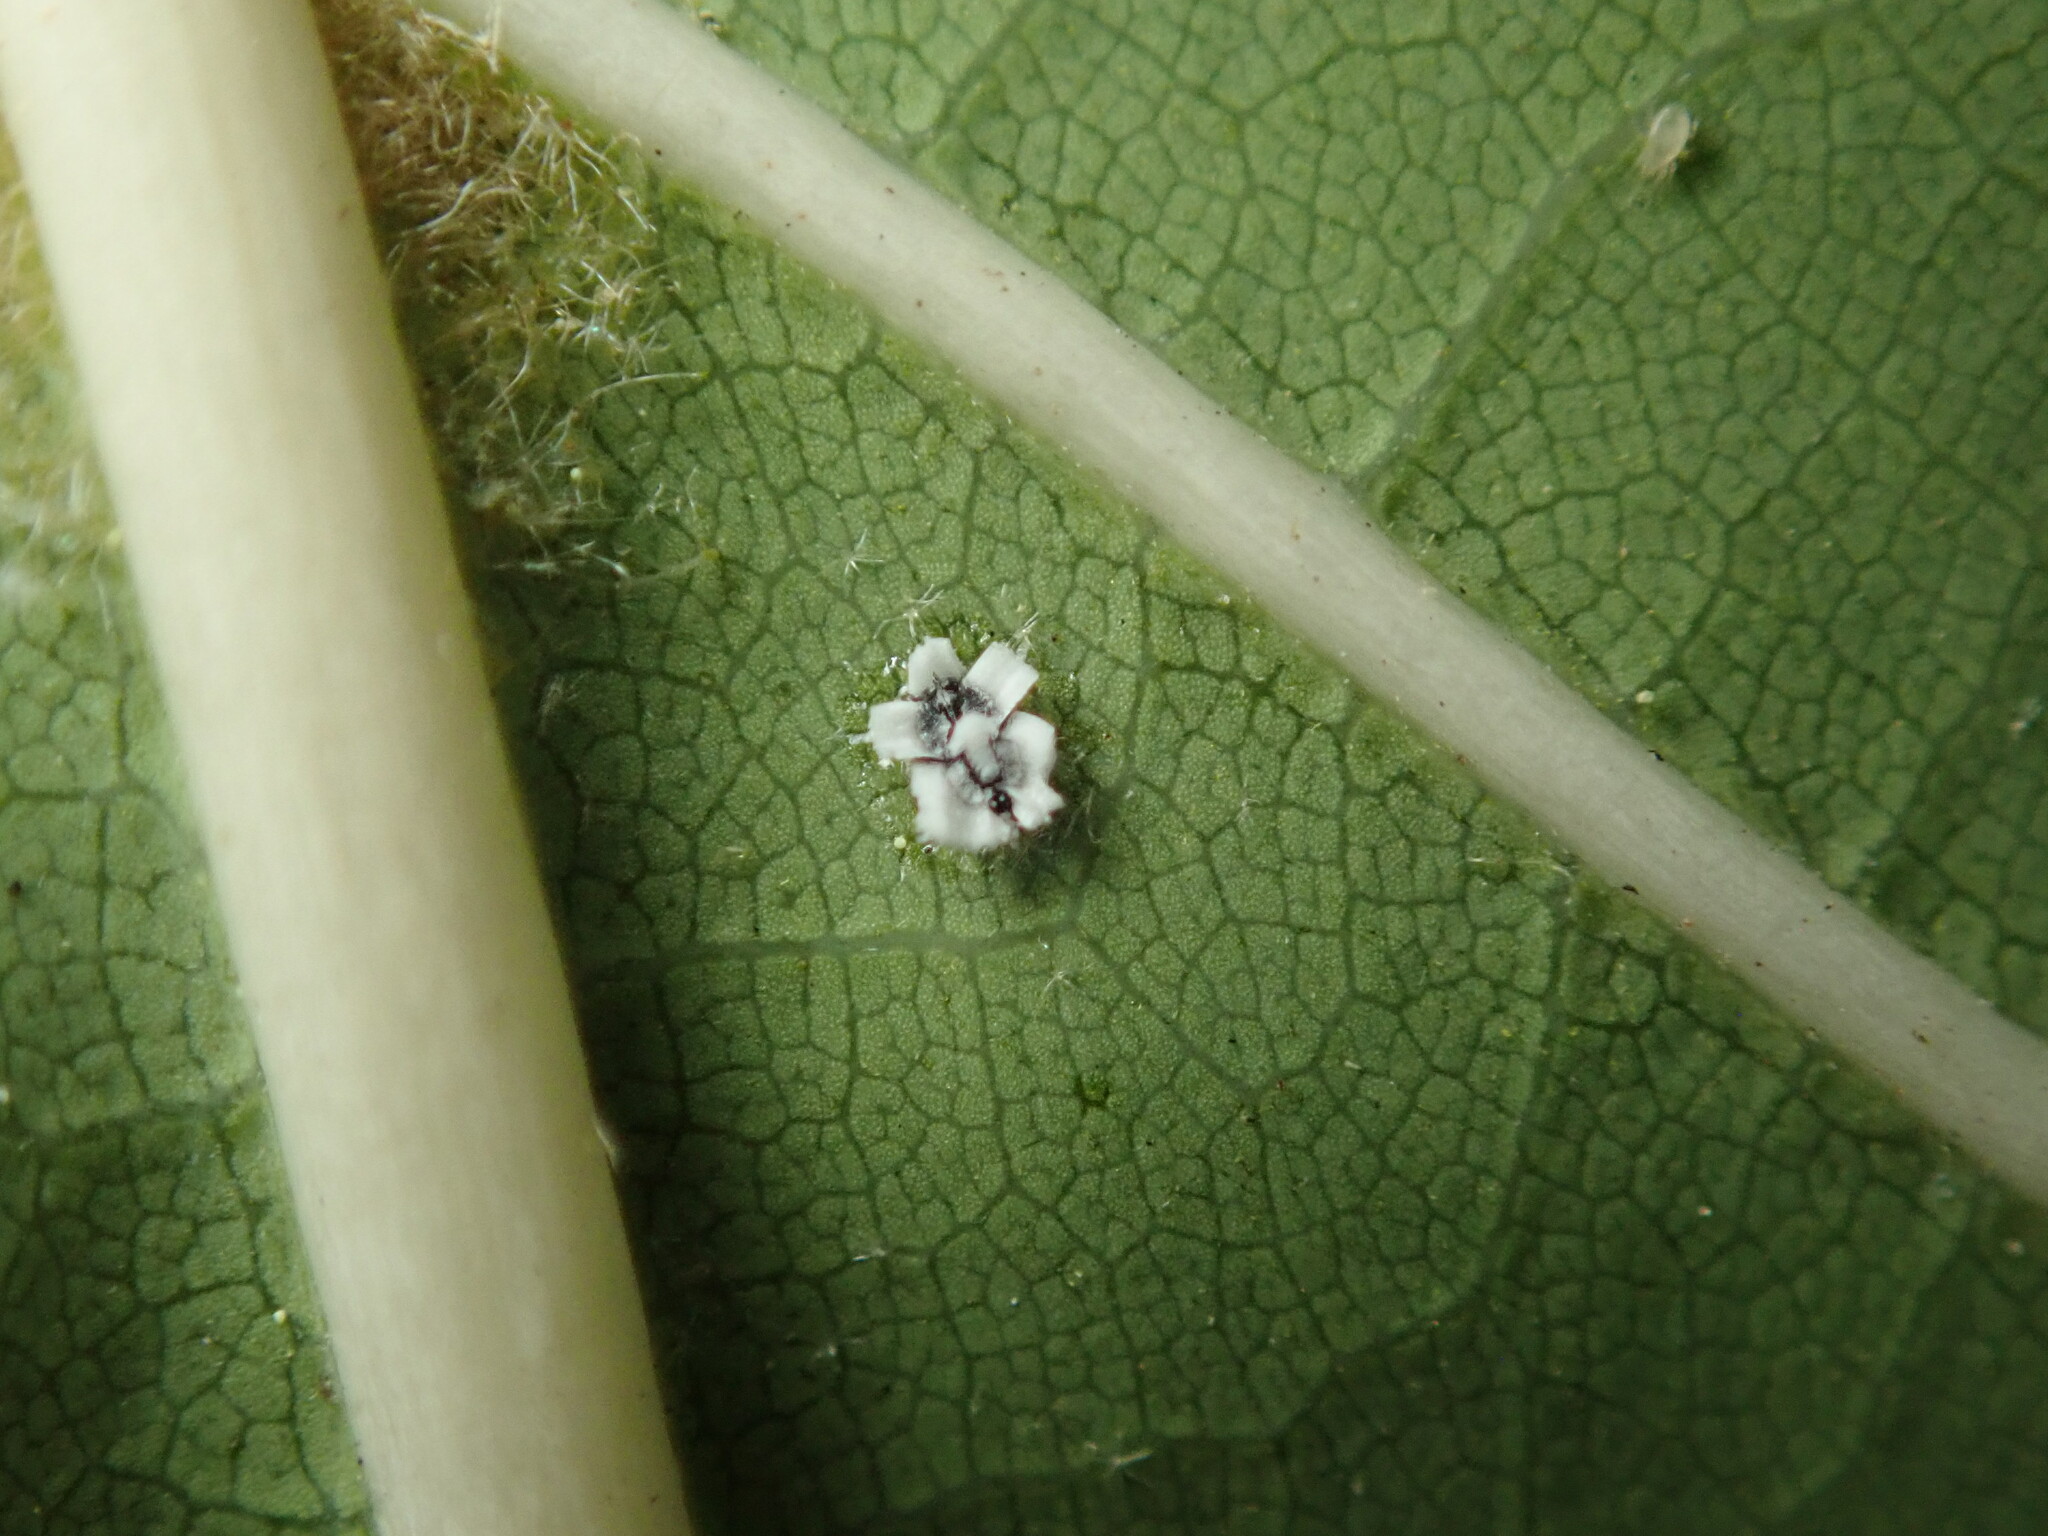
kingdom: Animalia
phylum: Arthropoda
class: Insecta
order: Hemiptera
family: Aleyrodidae
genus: Aleuroplatus
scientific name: Aleuroplatus coronata
